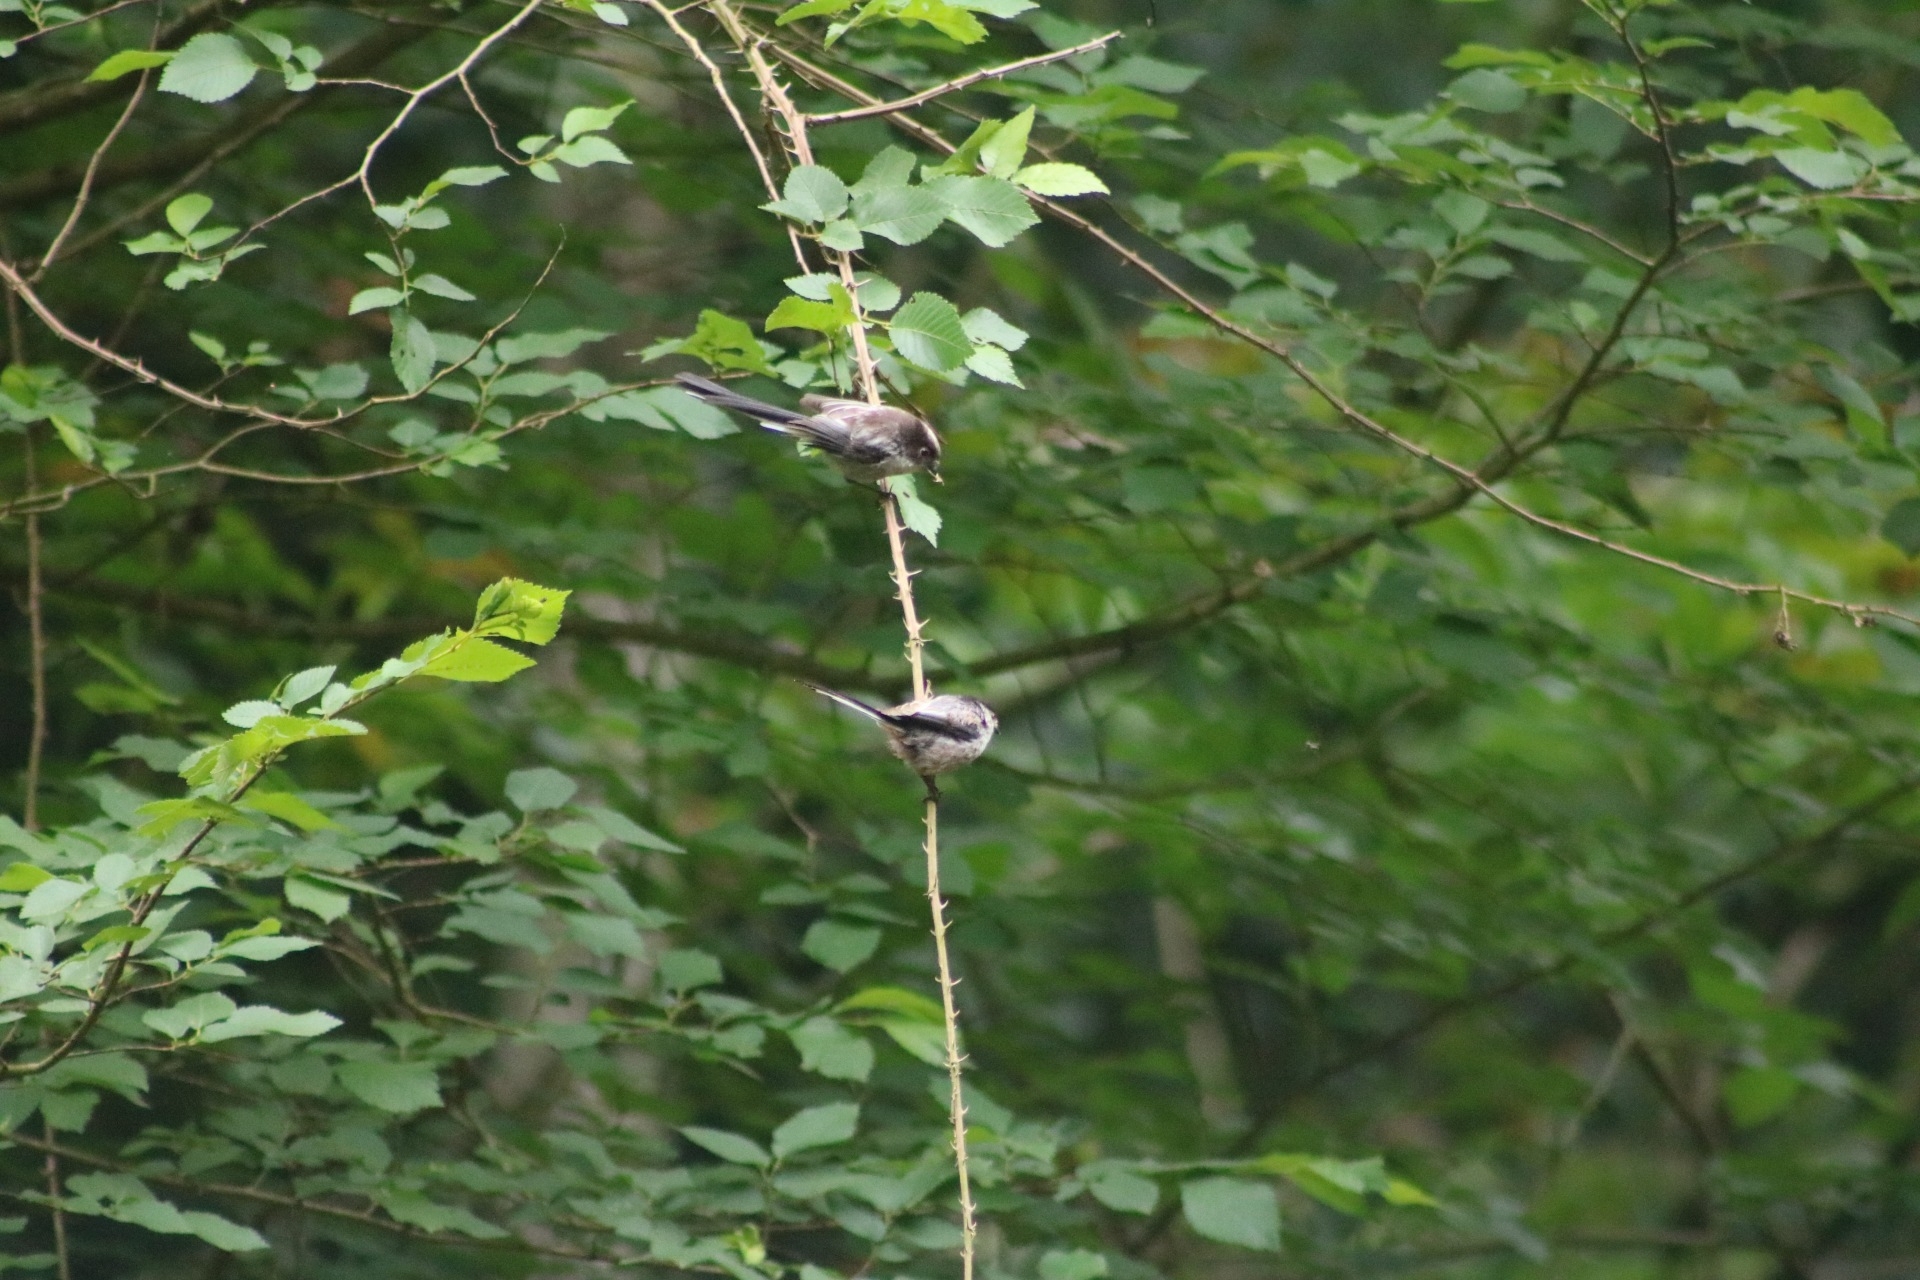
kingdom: Animalia
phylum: Chordata
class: Aves
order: Passeriformes
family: Aegithalidae
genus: Aegithalos
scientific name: Aegithalos caudatus
